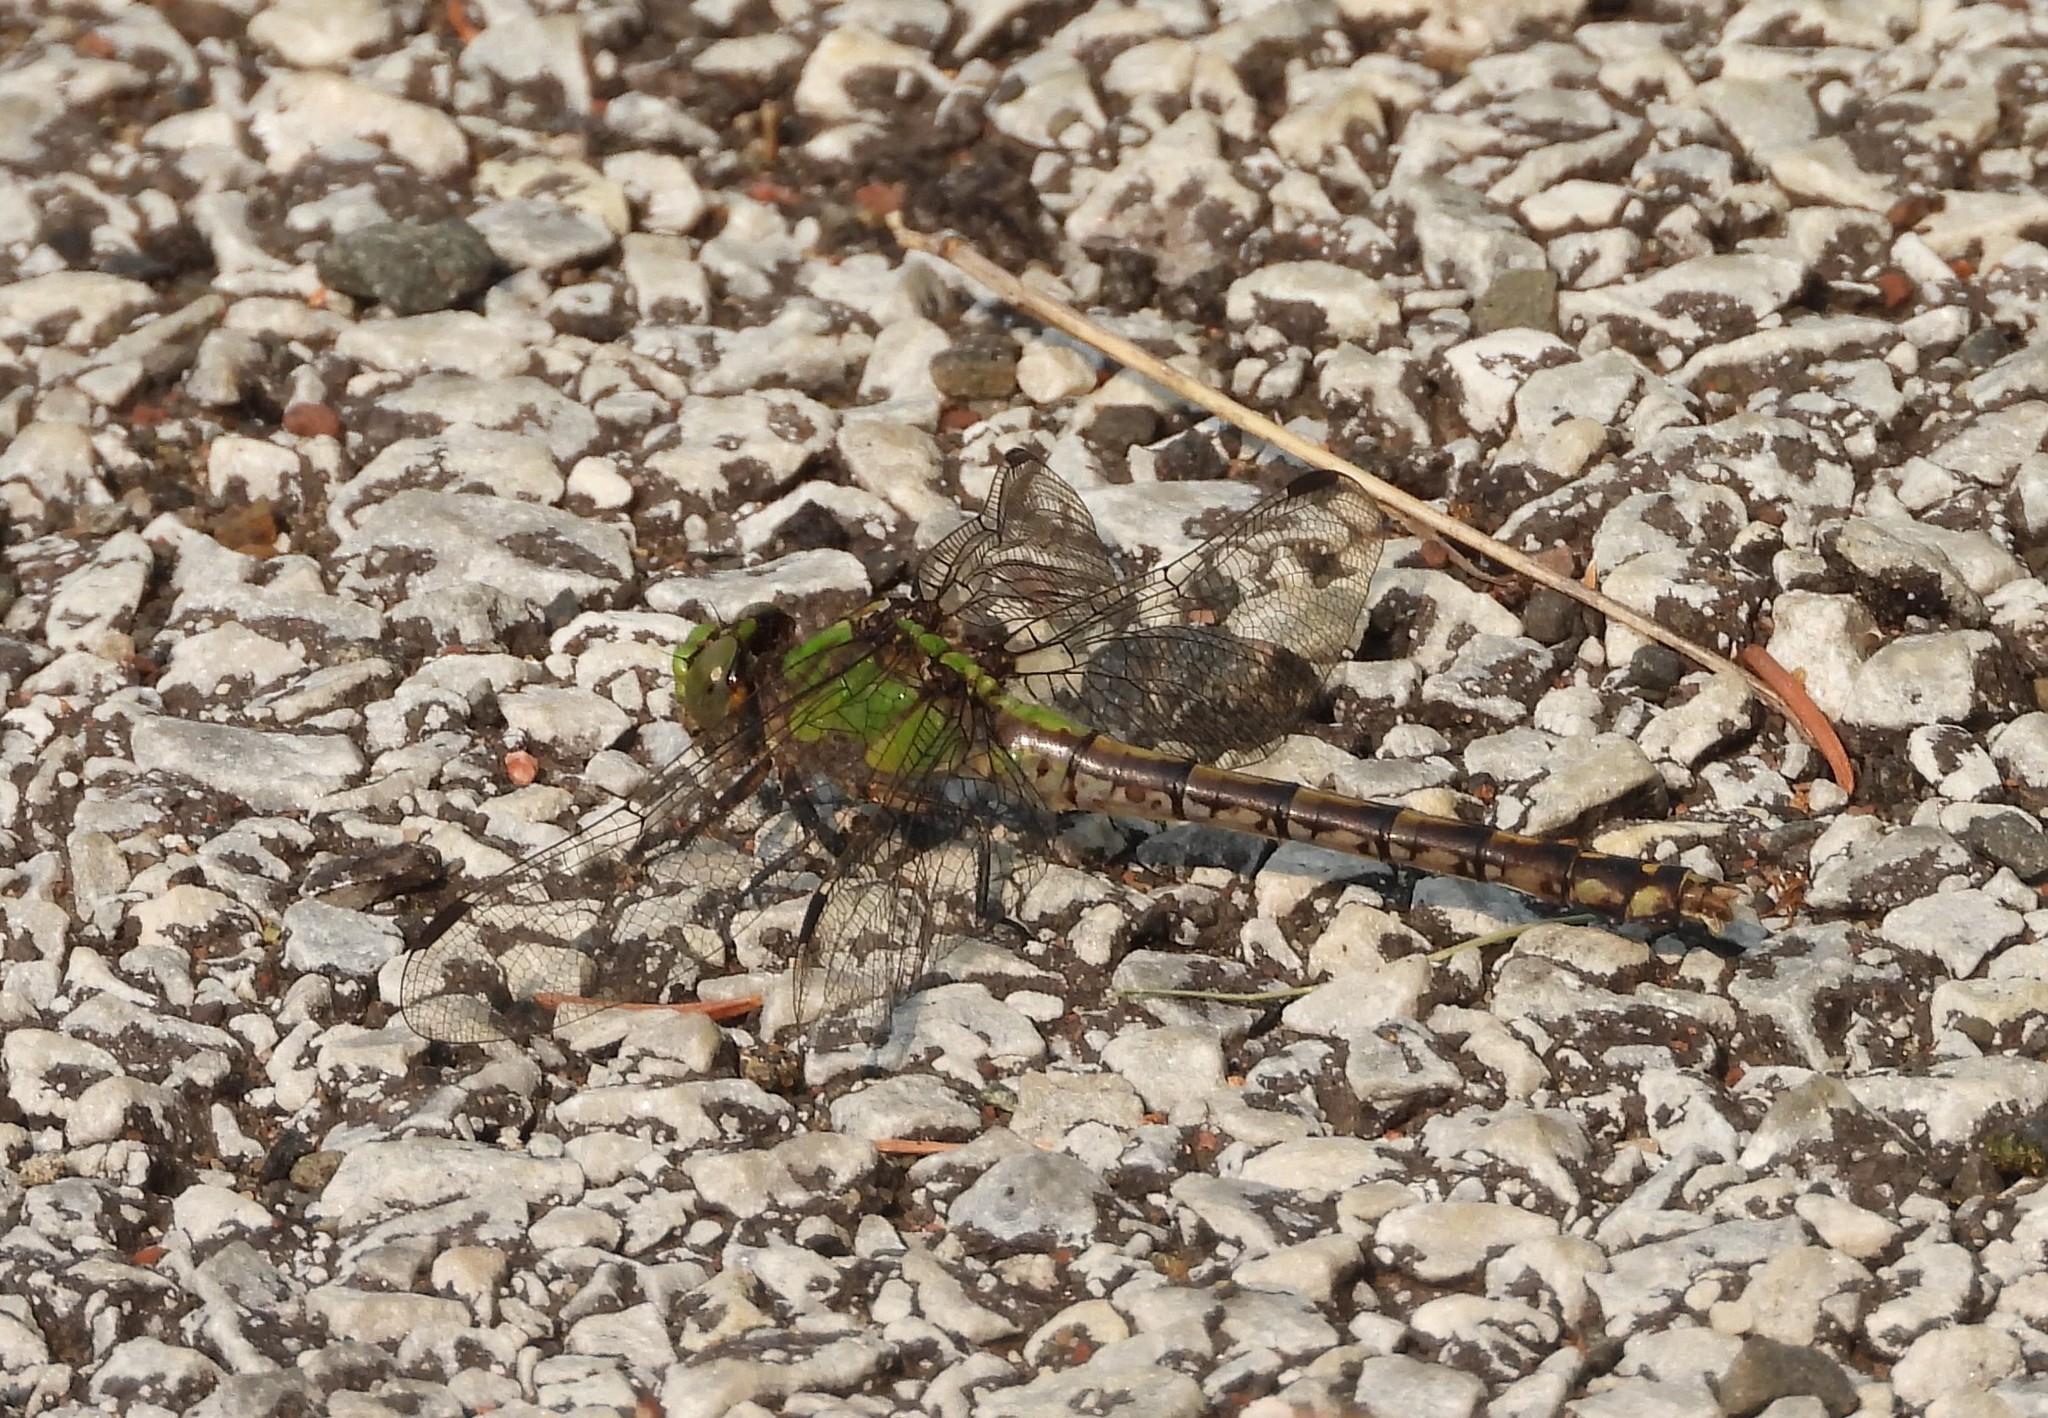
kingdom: Animalia
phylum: Arthropoda
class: Insecta
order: Odonata
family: Gomphidae
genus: Ophiogomphus
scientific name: Ophiogomphus rupinsulensis
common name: Rusty snaketail
